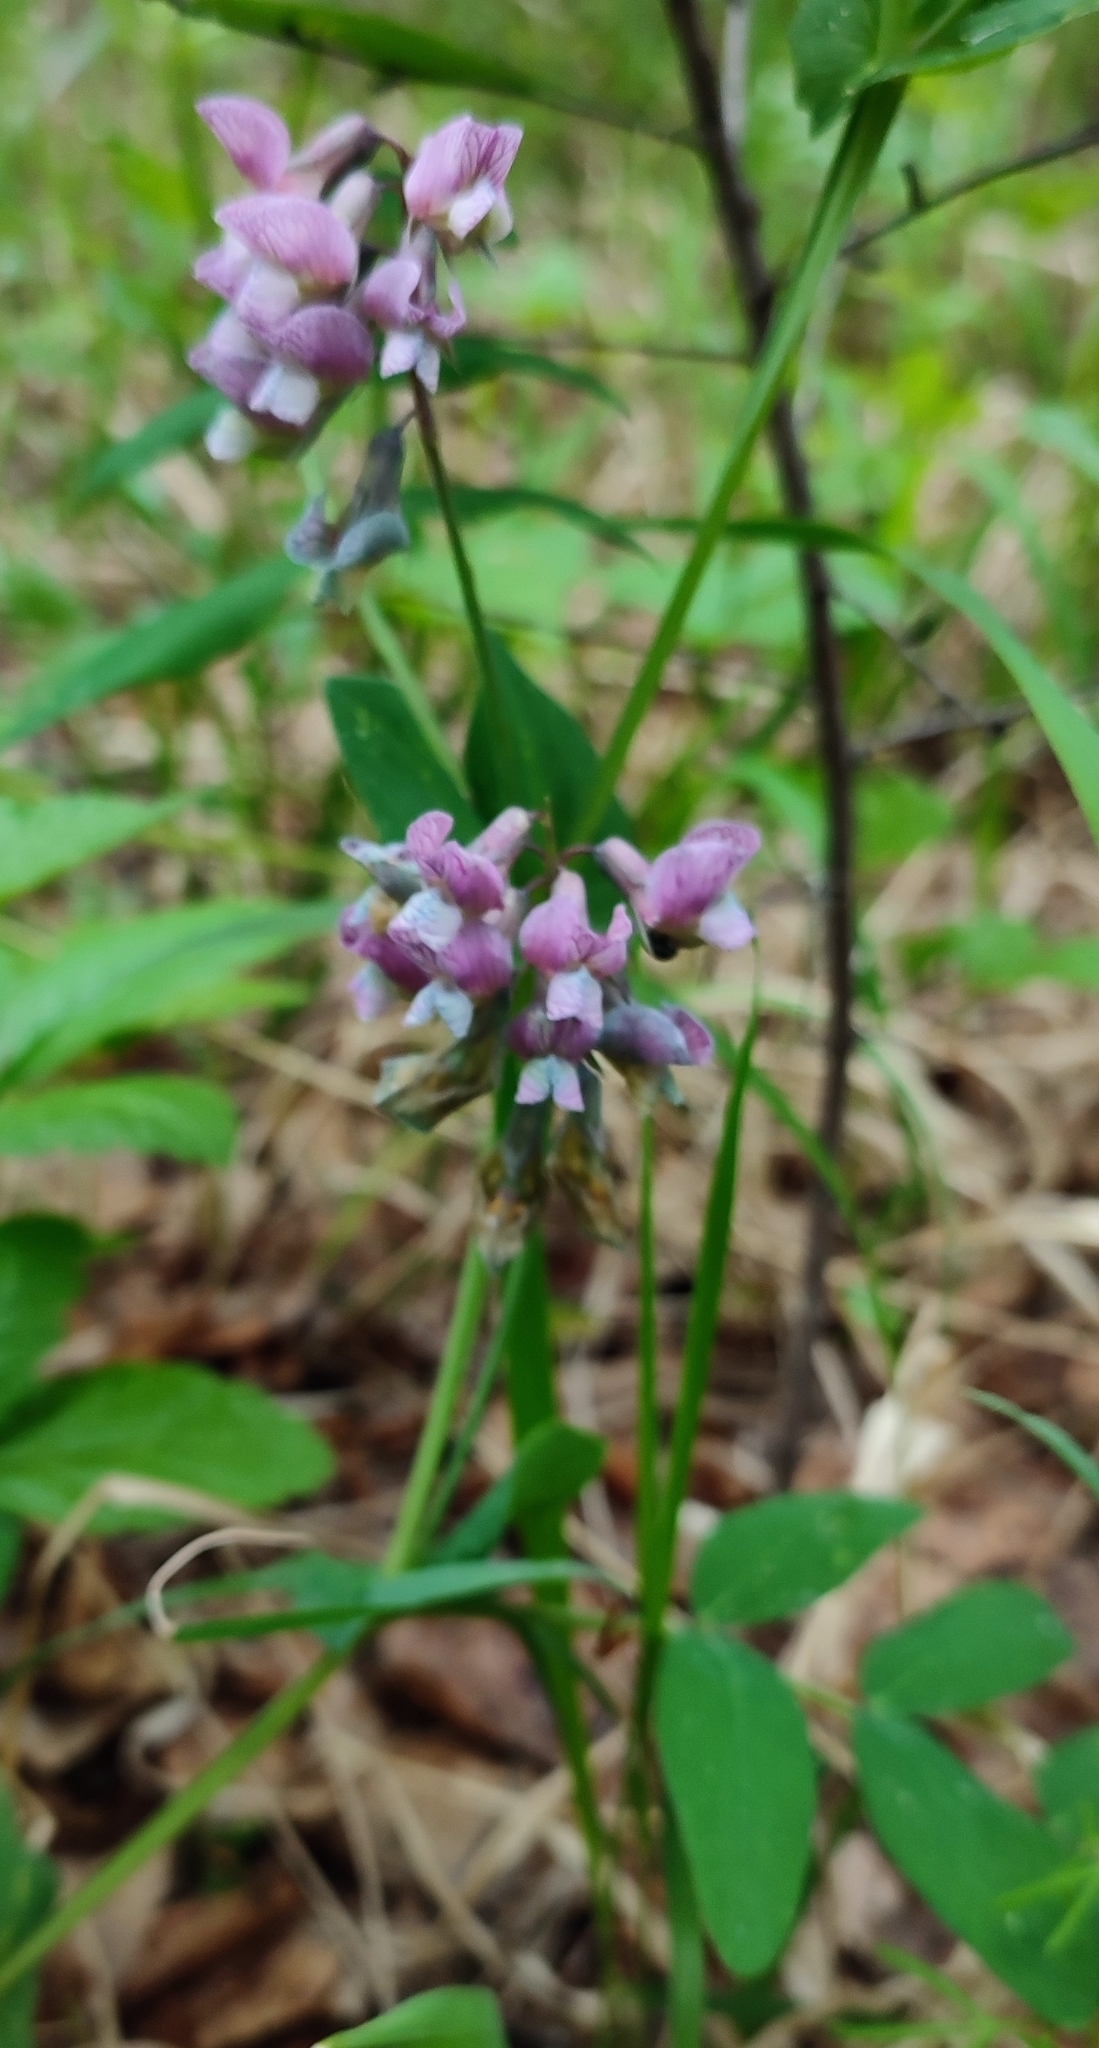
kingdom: Plantae
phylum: Tracheophyta
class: Magnoliopsida
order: Fabales
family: Fabaceae
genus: Lathyrus
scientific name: Lathyrus pisiformis
